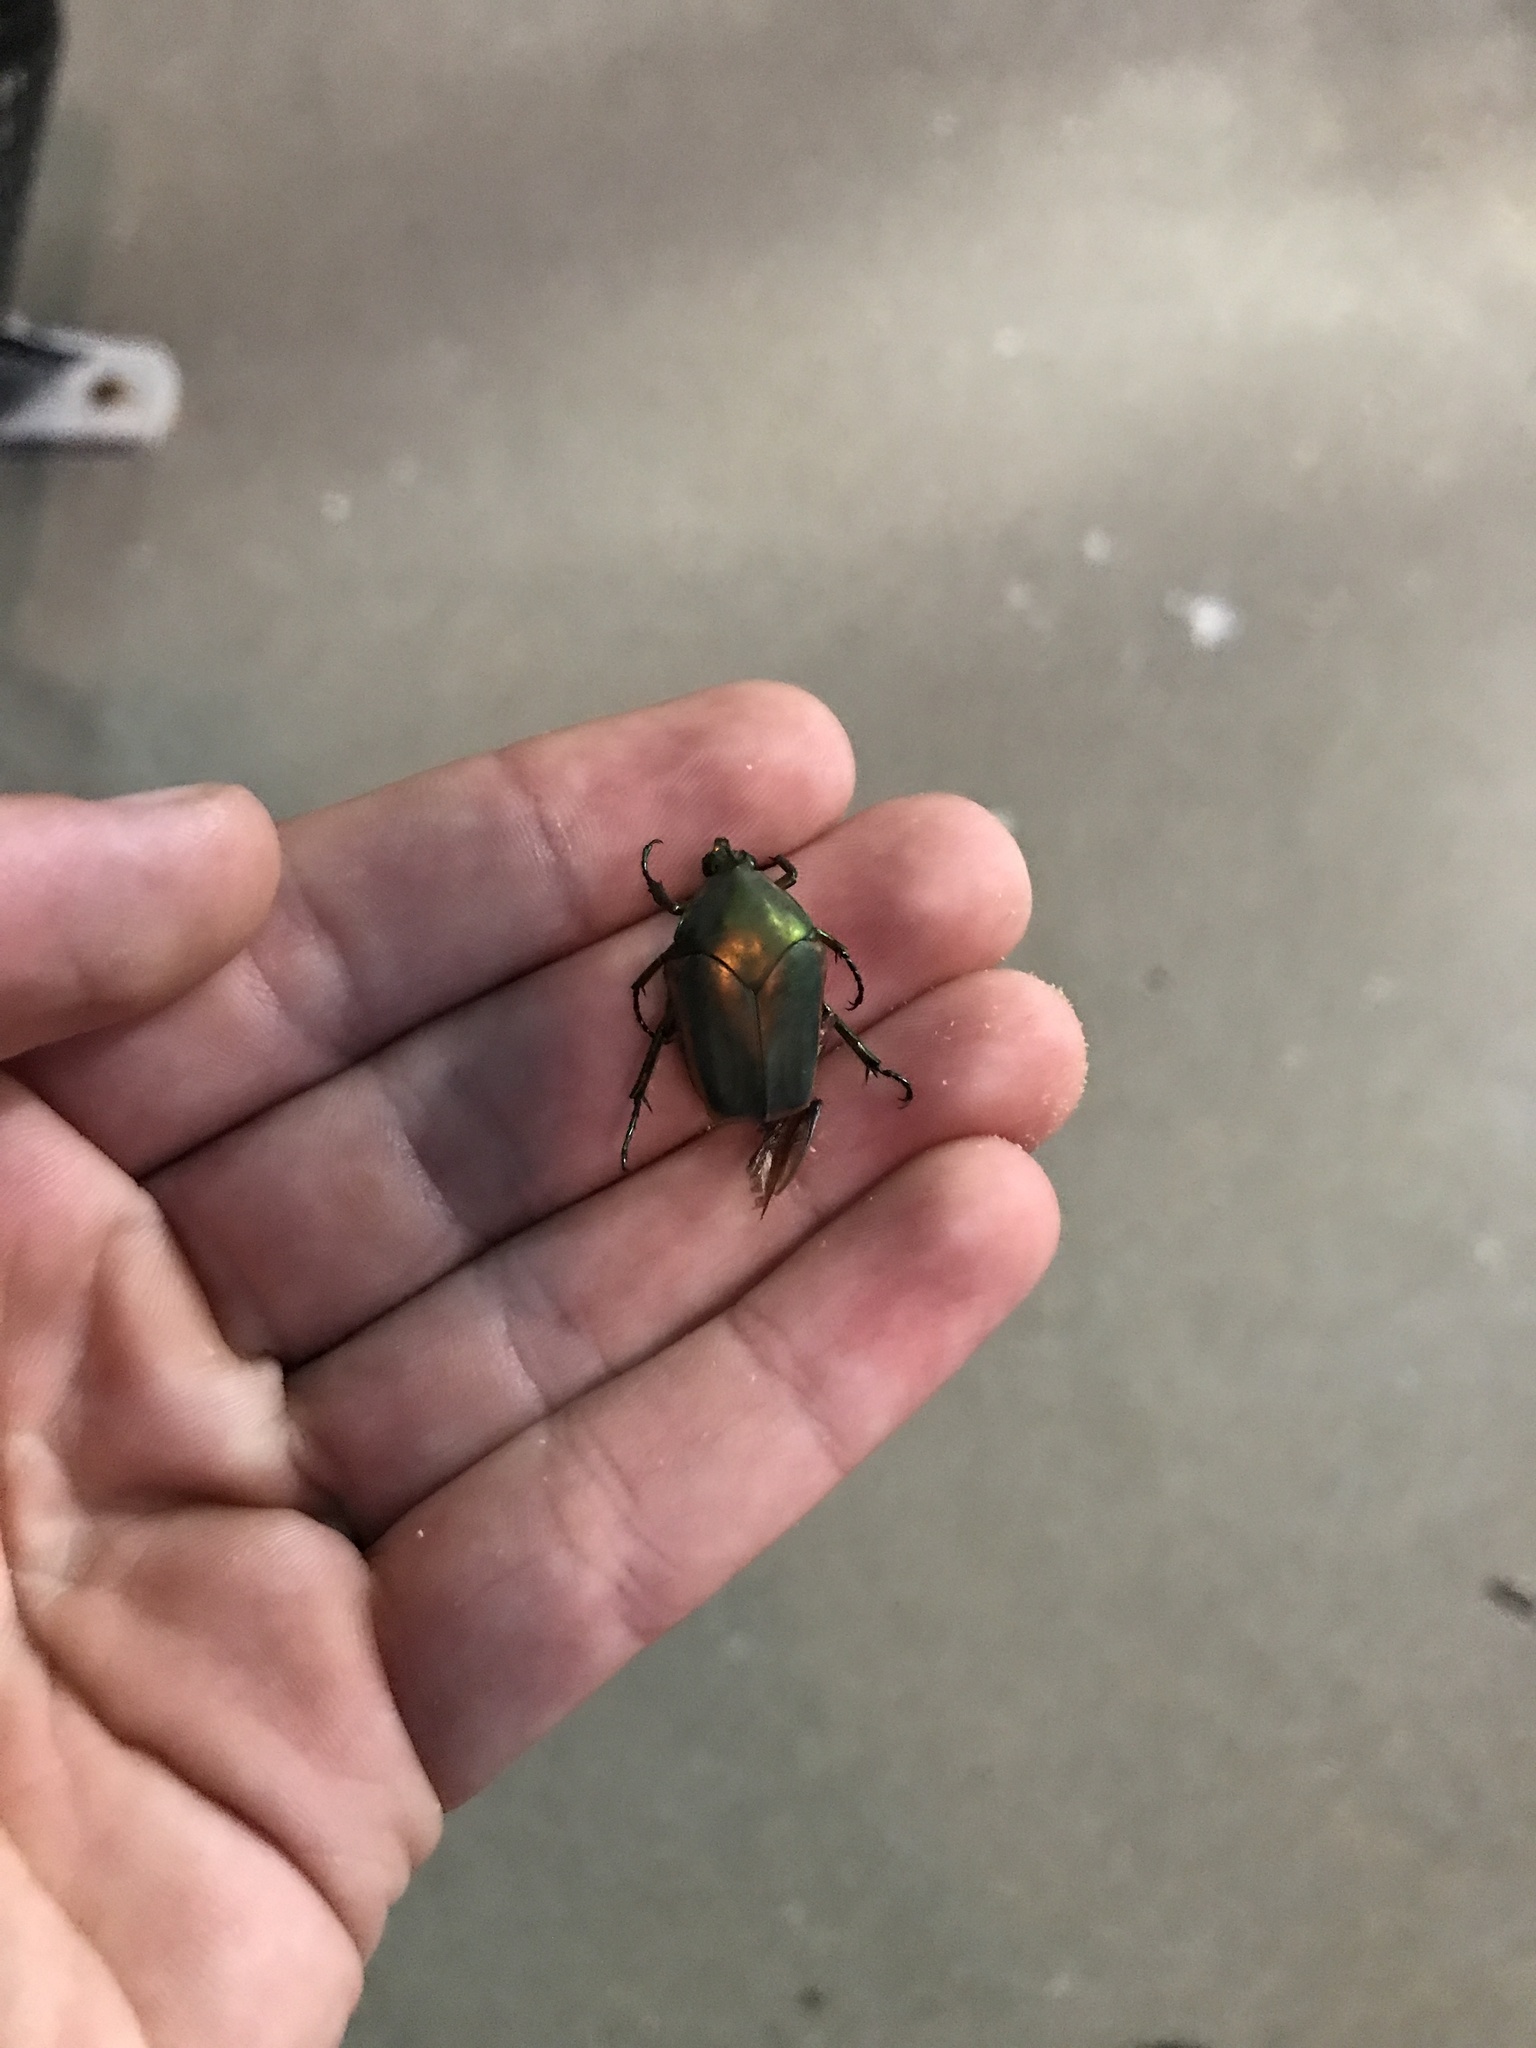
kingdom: Animalia
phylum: Arthropoda
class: Insecta
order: Coleoptera
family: Scarabaeidae
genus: Cotinis
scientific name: Cotinis nitida
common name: Common green june beetle
